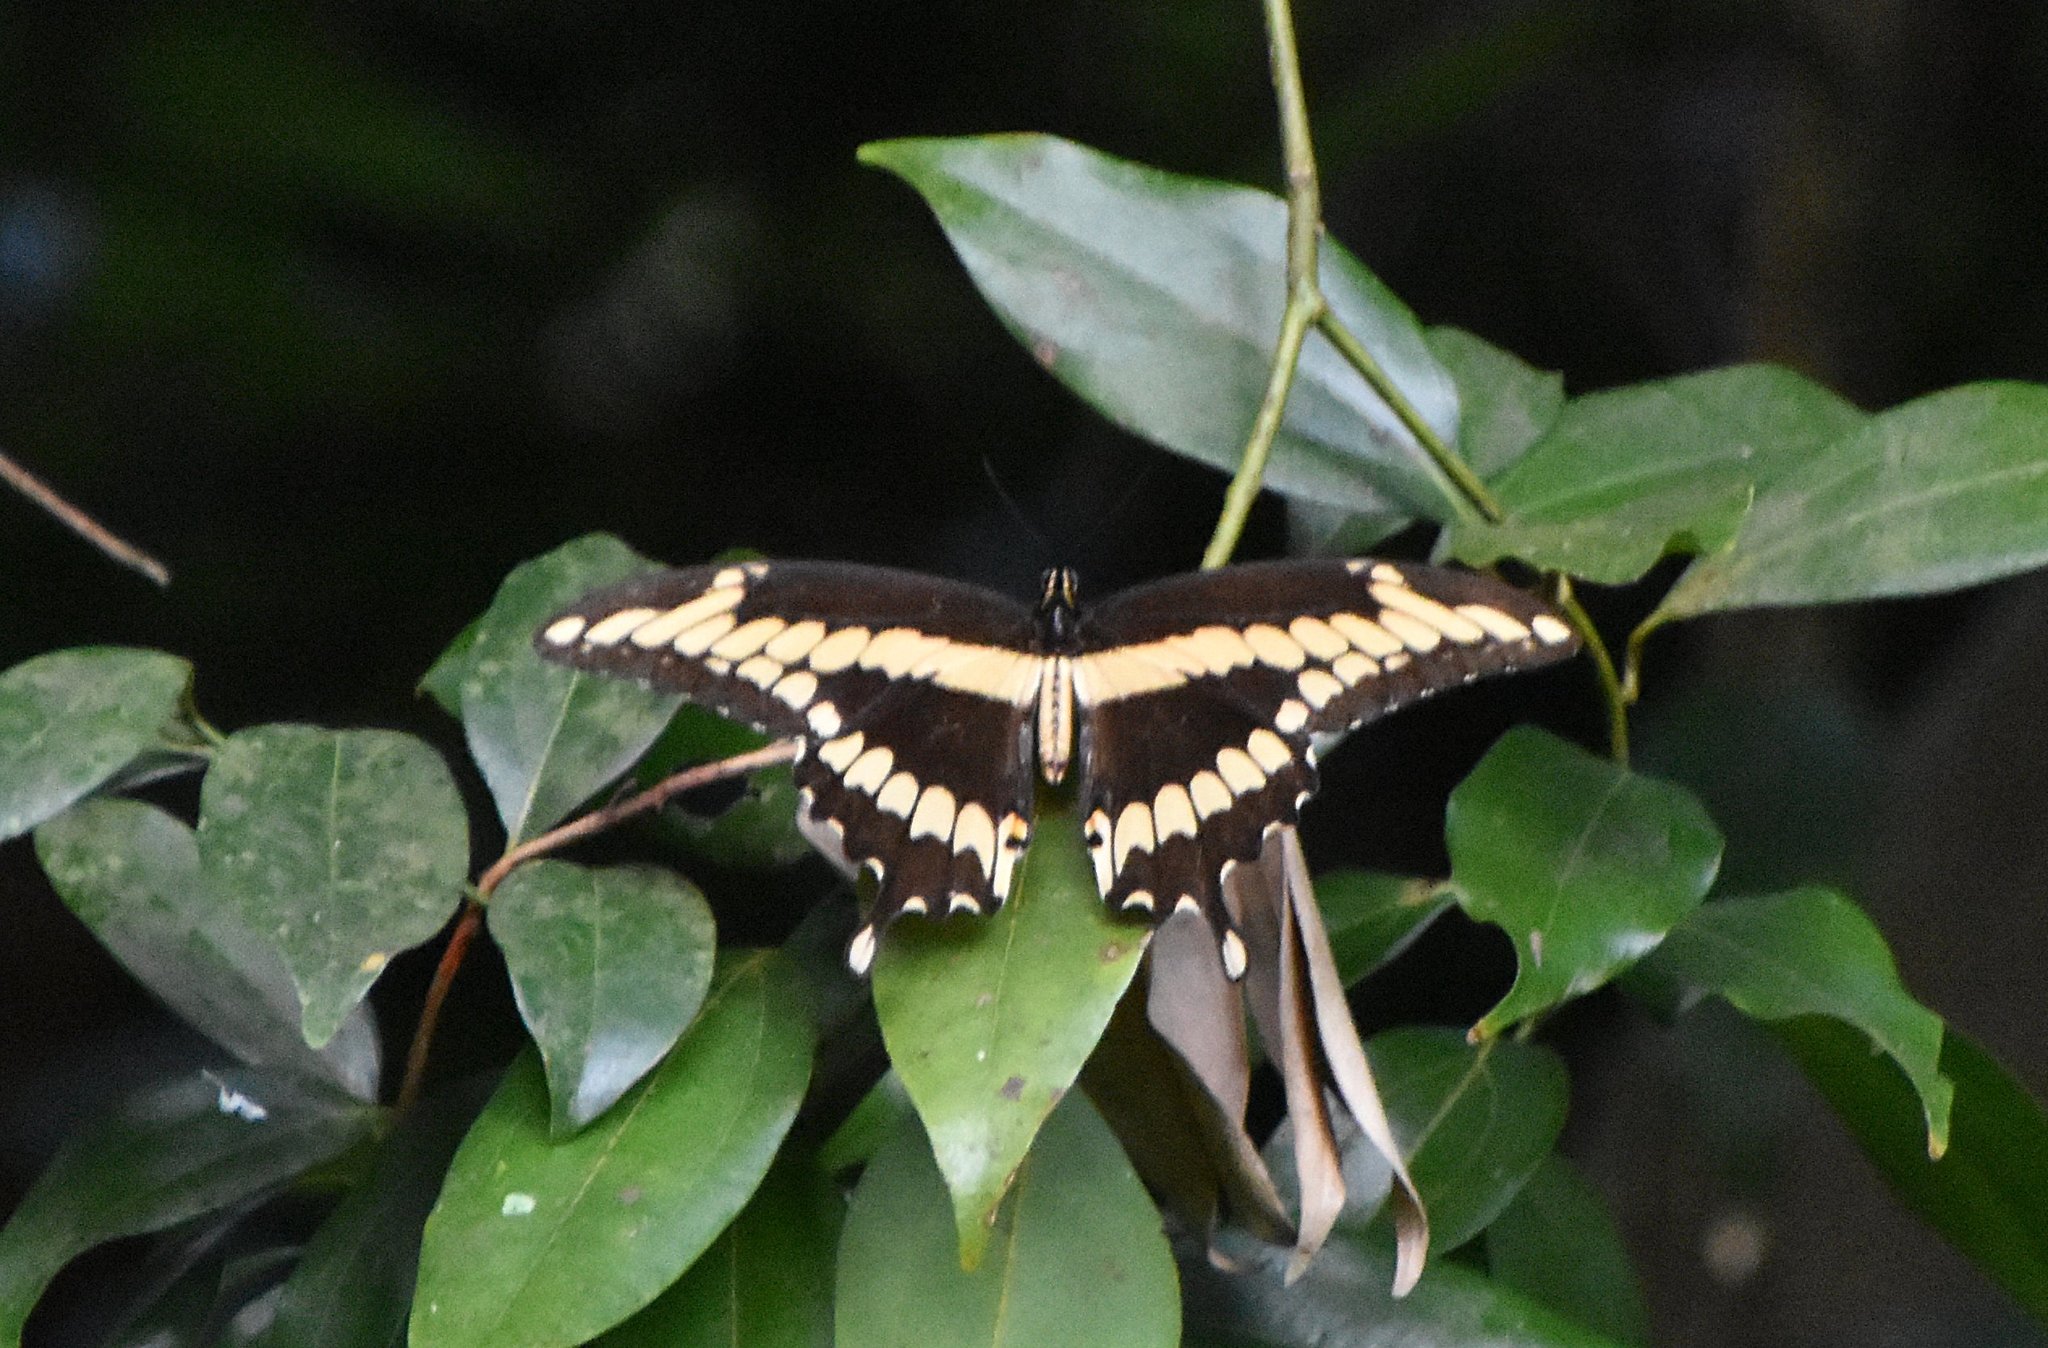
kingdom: Animalia
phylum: Arthropoda
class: Insecta
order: Lepidoptera
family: Papilionidae
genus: Papilio
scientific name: Papilio cresphontes
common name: Giant swallowtail
